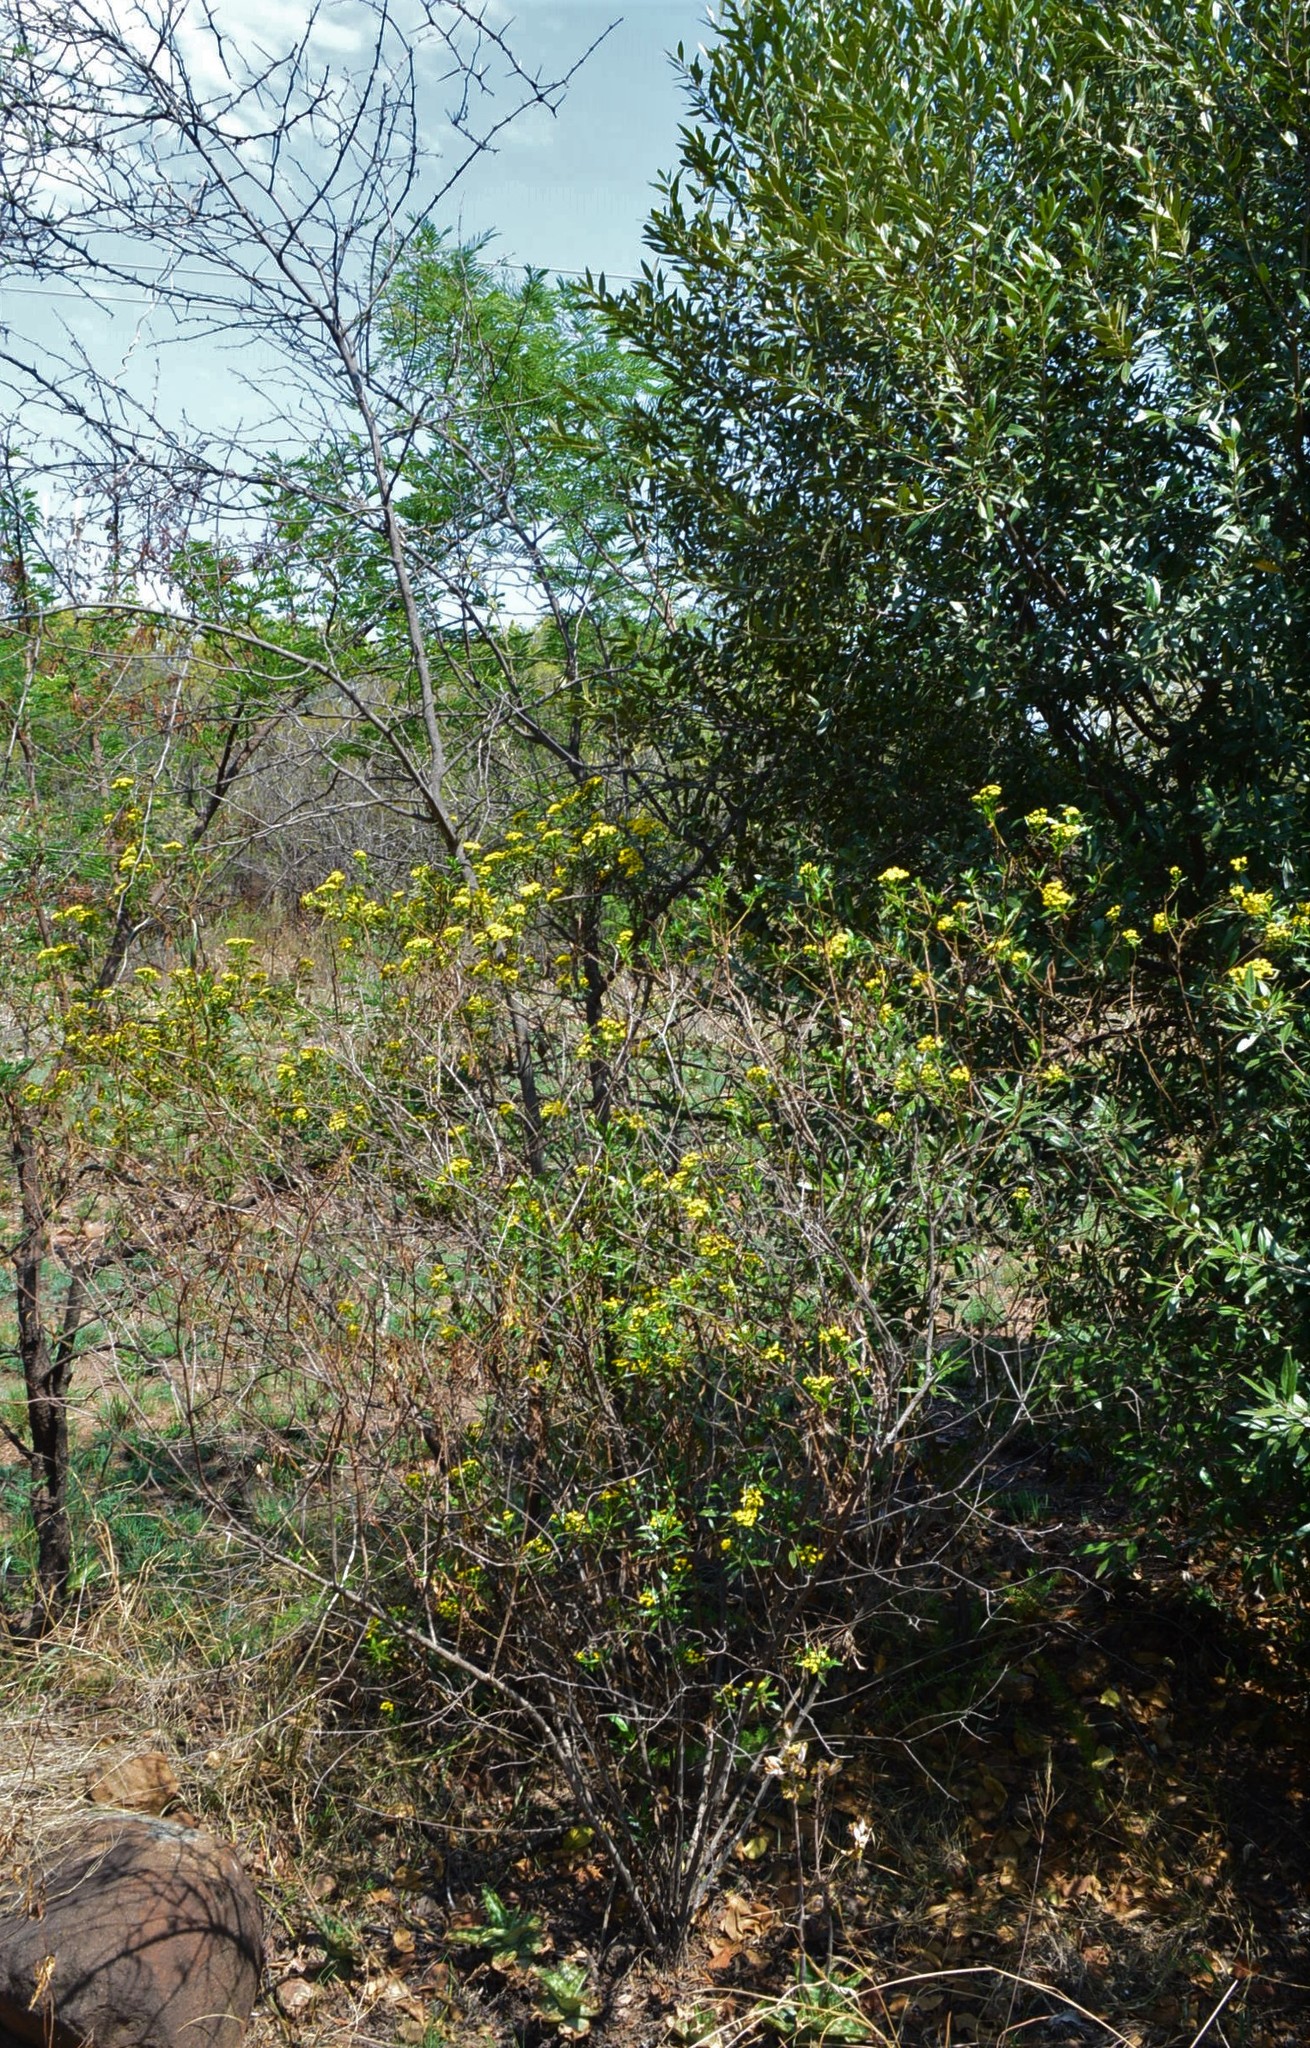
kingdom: Plantae
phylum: Tracheophyta
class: Magnoliopsida
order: Asterales
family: Asteraceae
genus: Psiadia
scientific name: Psiadia punctulata
